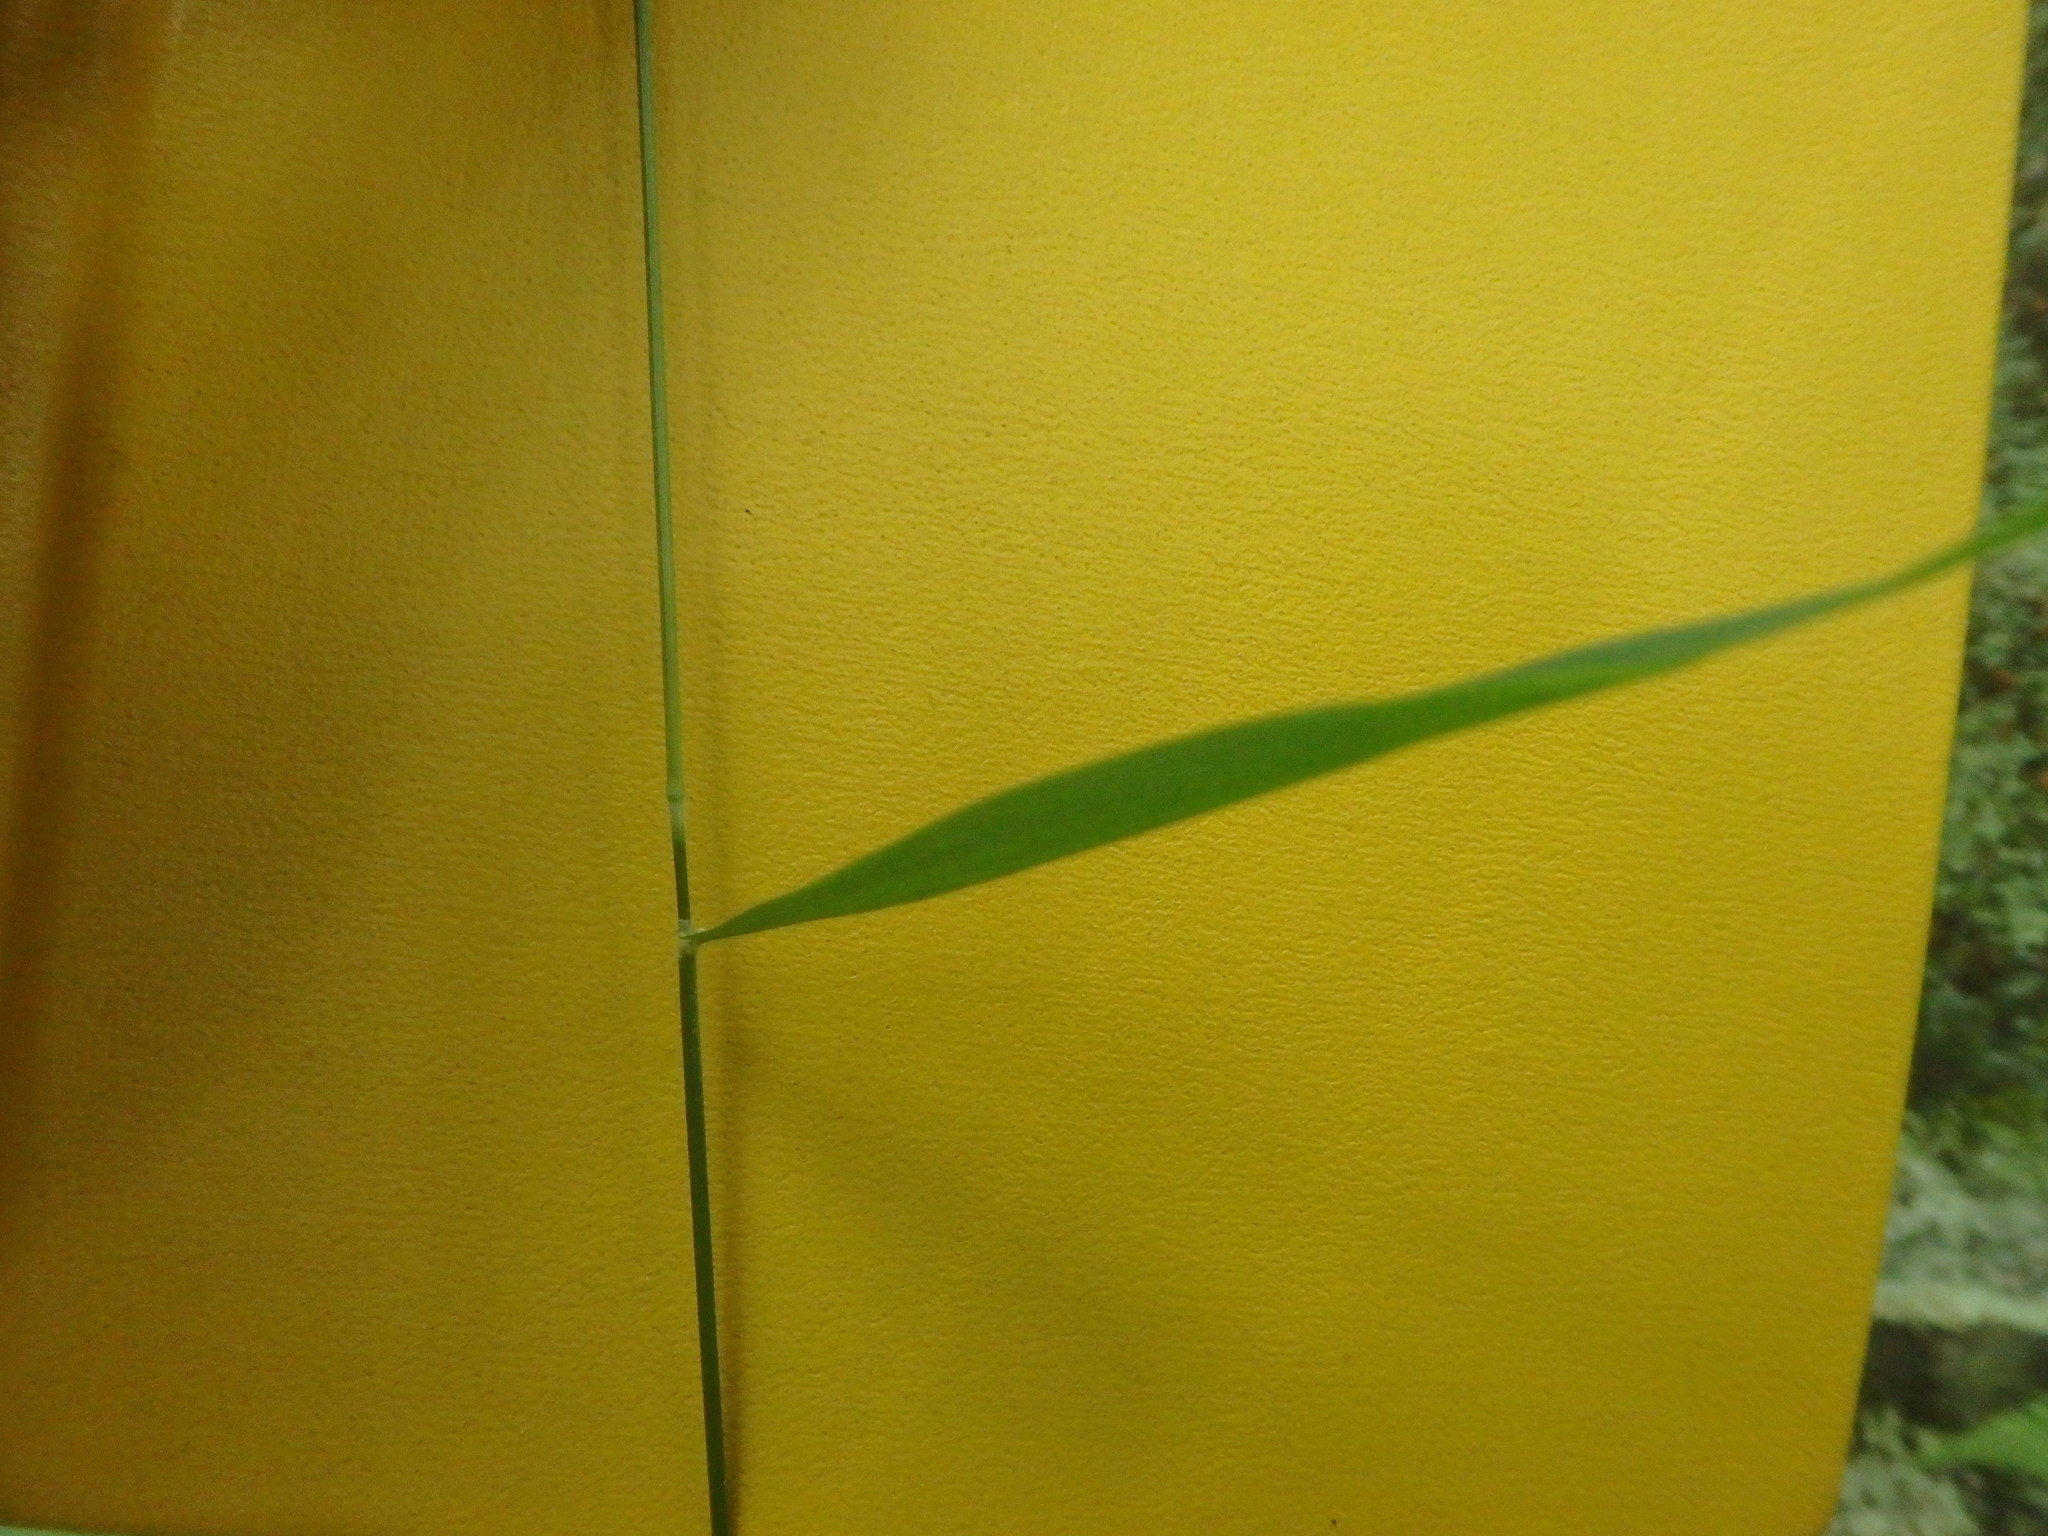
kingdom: Plantae
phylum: Tracheophyta
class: Liliopsida
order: Poales
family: Poaceae
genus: Brachyelytrum
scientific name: Brachyelytrum erectum
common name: Bearded shorthusk
